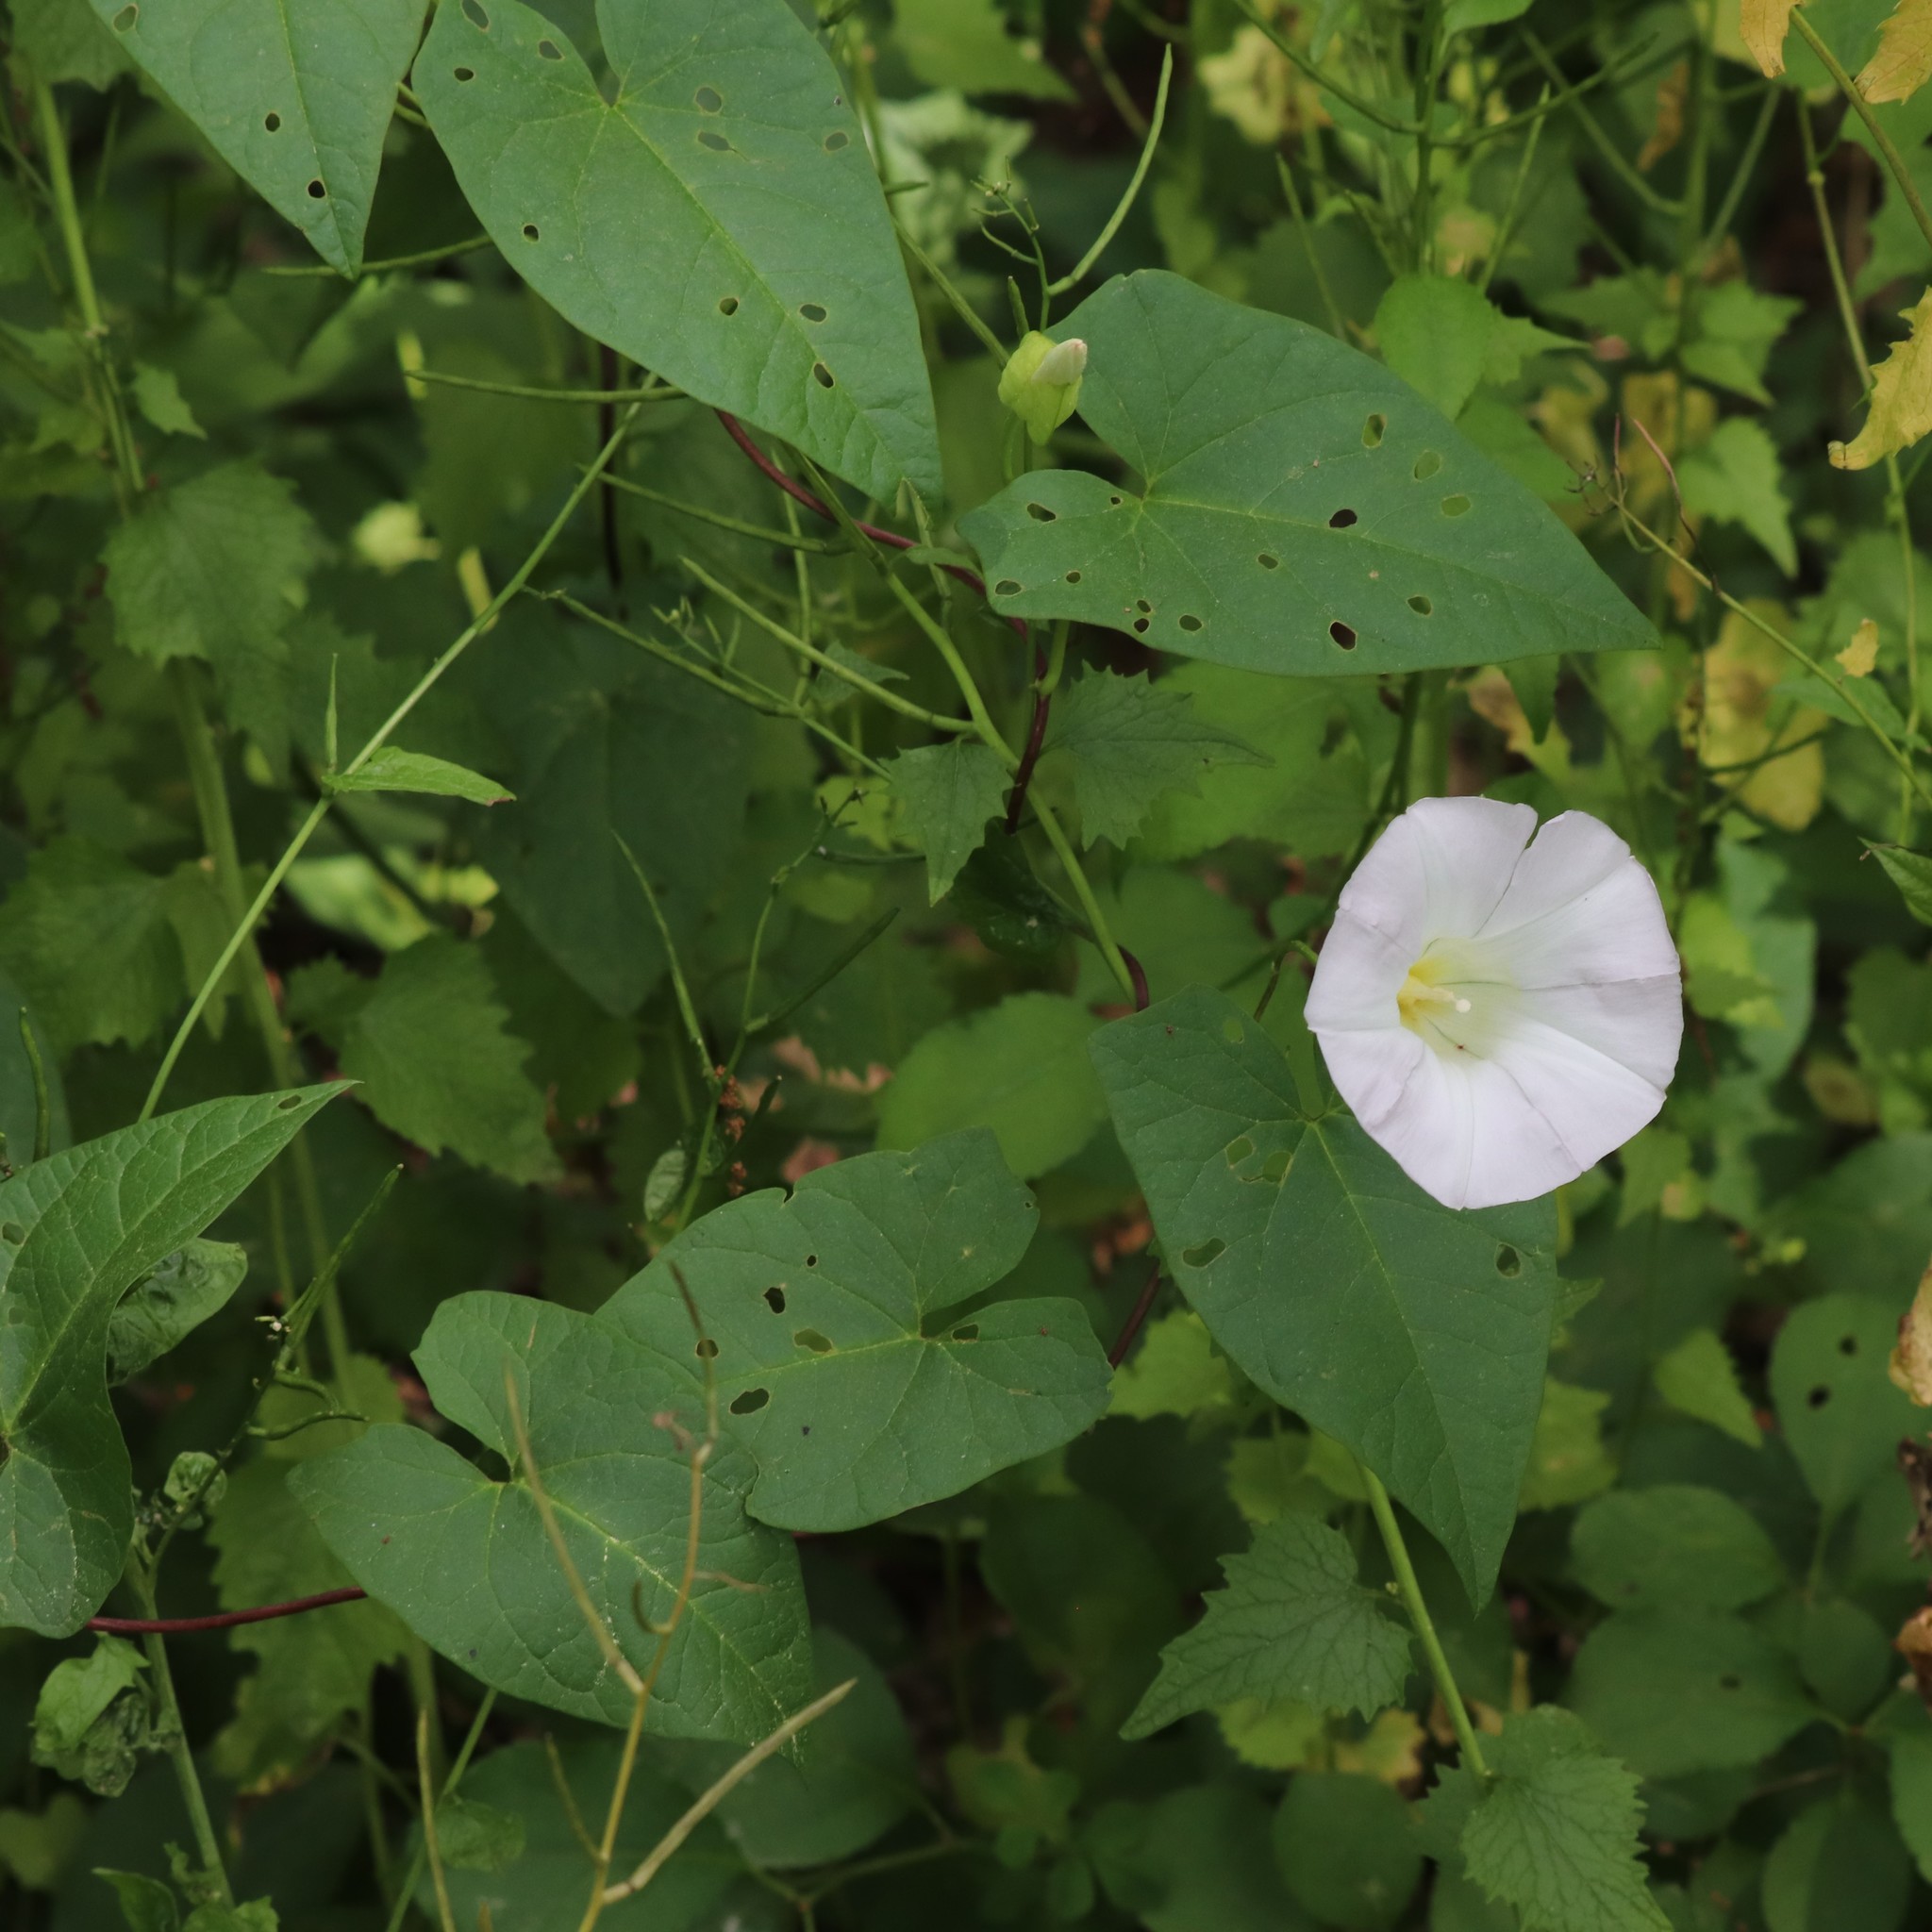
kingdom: Plantae
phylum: Tracheophyta
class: Magnoliopsida
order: Solanales
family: Convolvulaceae
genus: Calystegia
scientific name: Calystegia sepium
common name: Hedge bindweed
